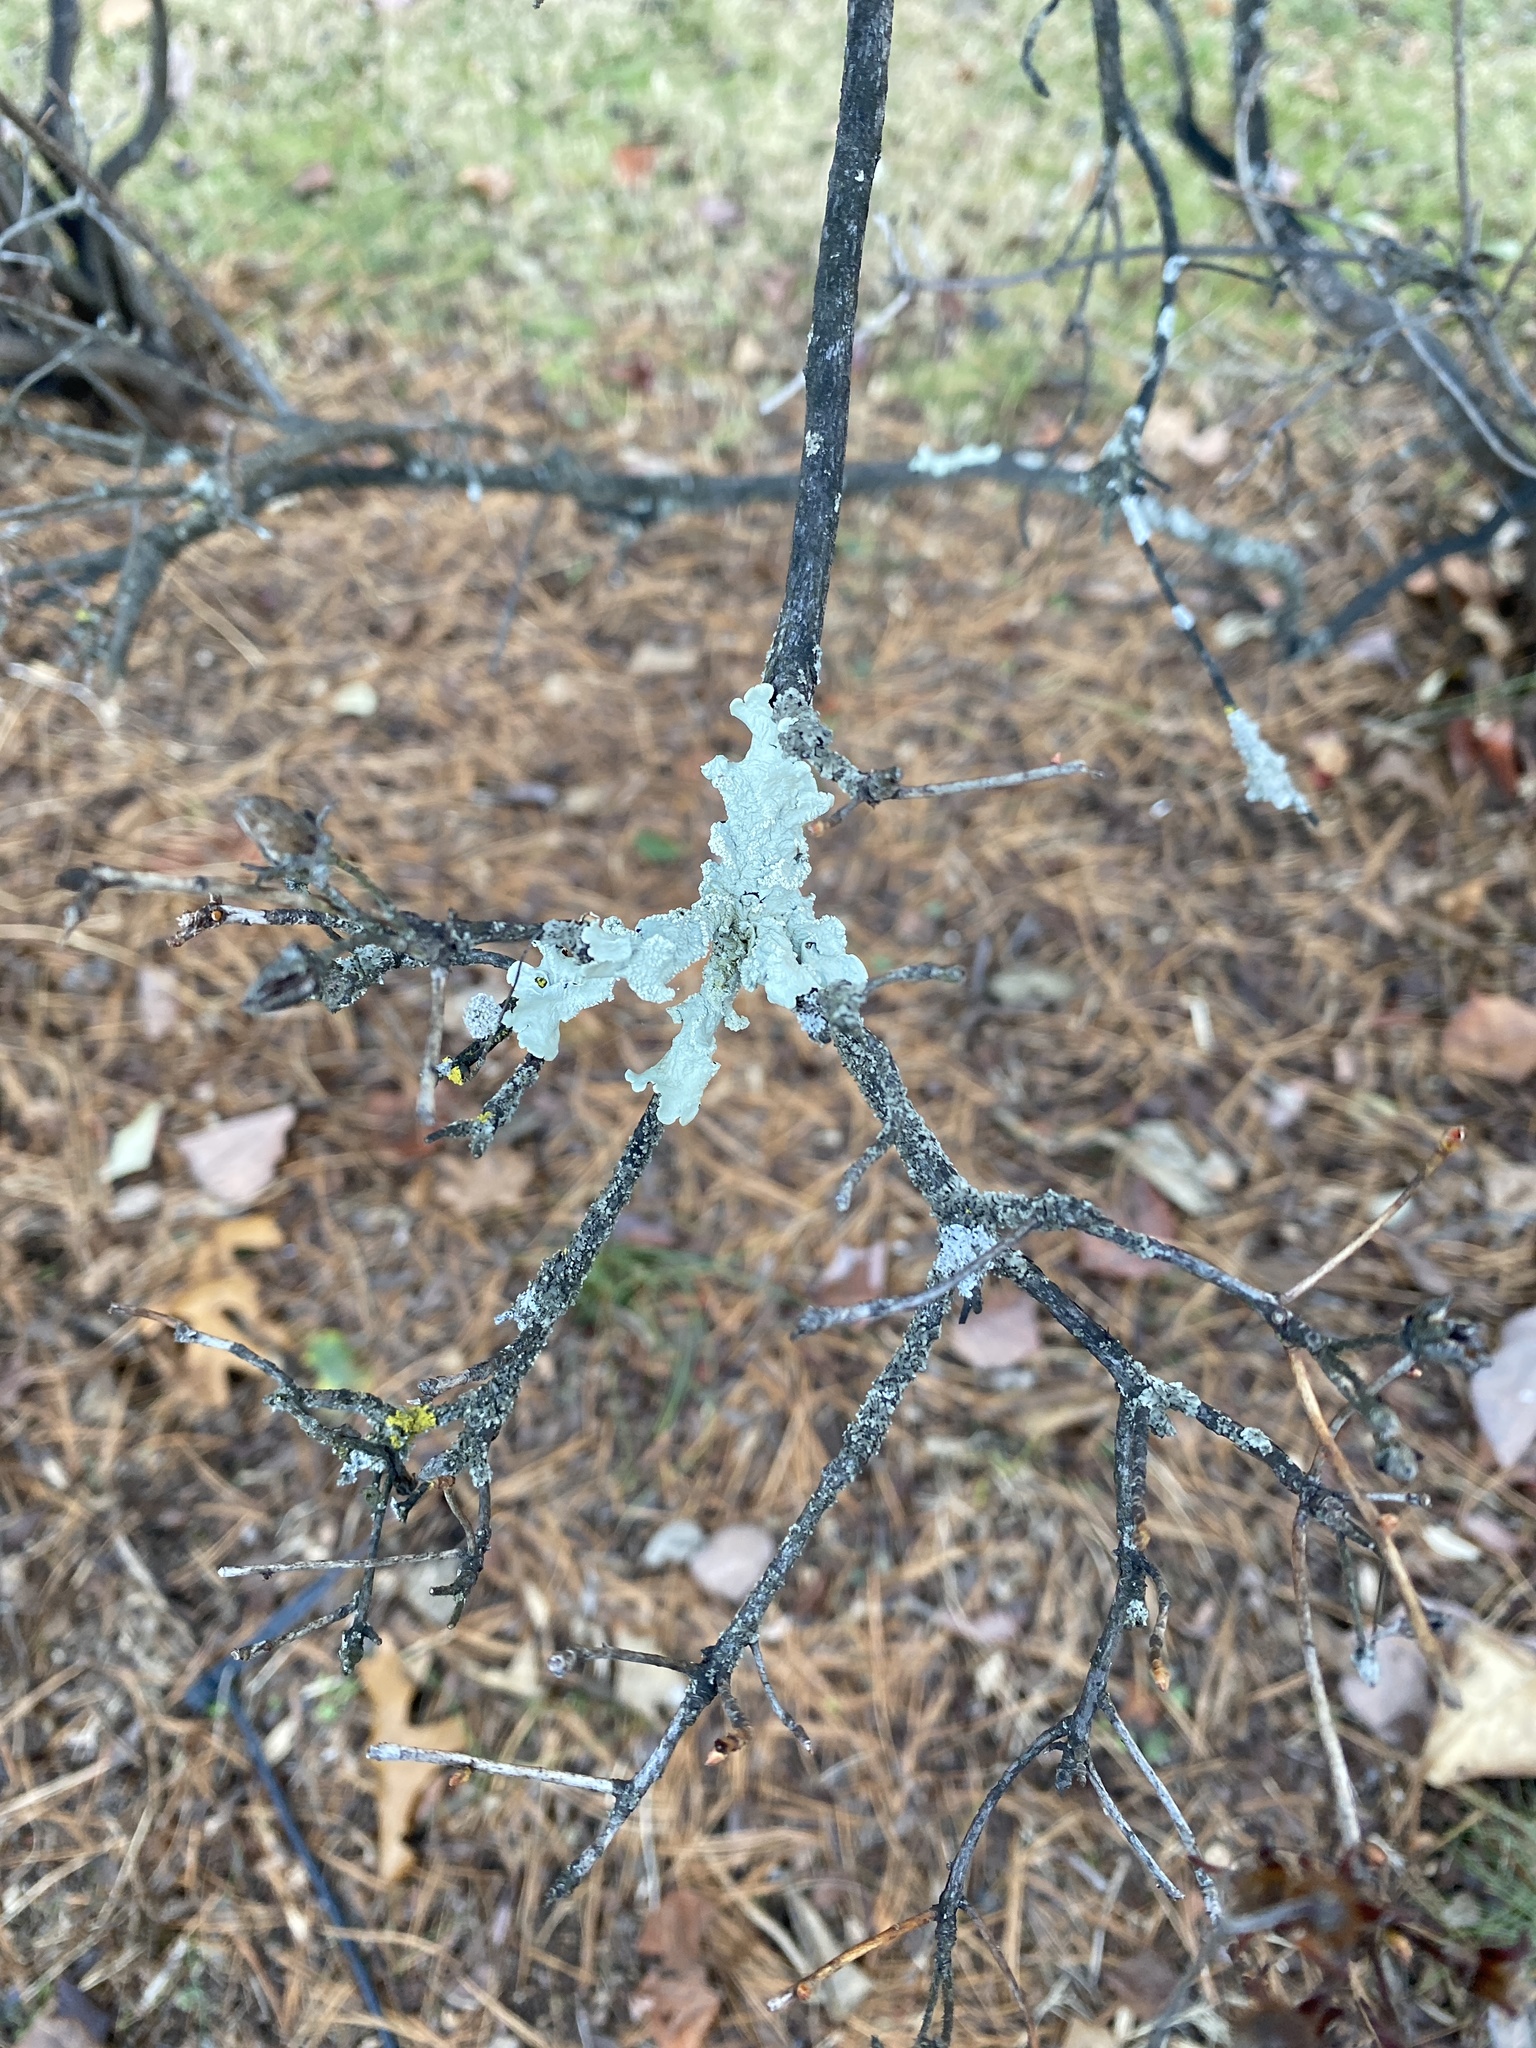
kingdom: Fungi
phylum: Ascomycota
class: Lecanoromycetes
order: Lecanorales
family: Parmeliaceae
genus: Flavoparmelia
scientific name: Flavoparmelia caperata
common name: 40-mile per hour lichen
